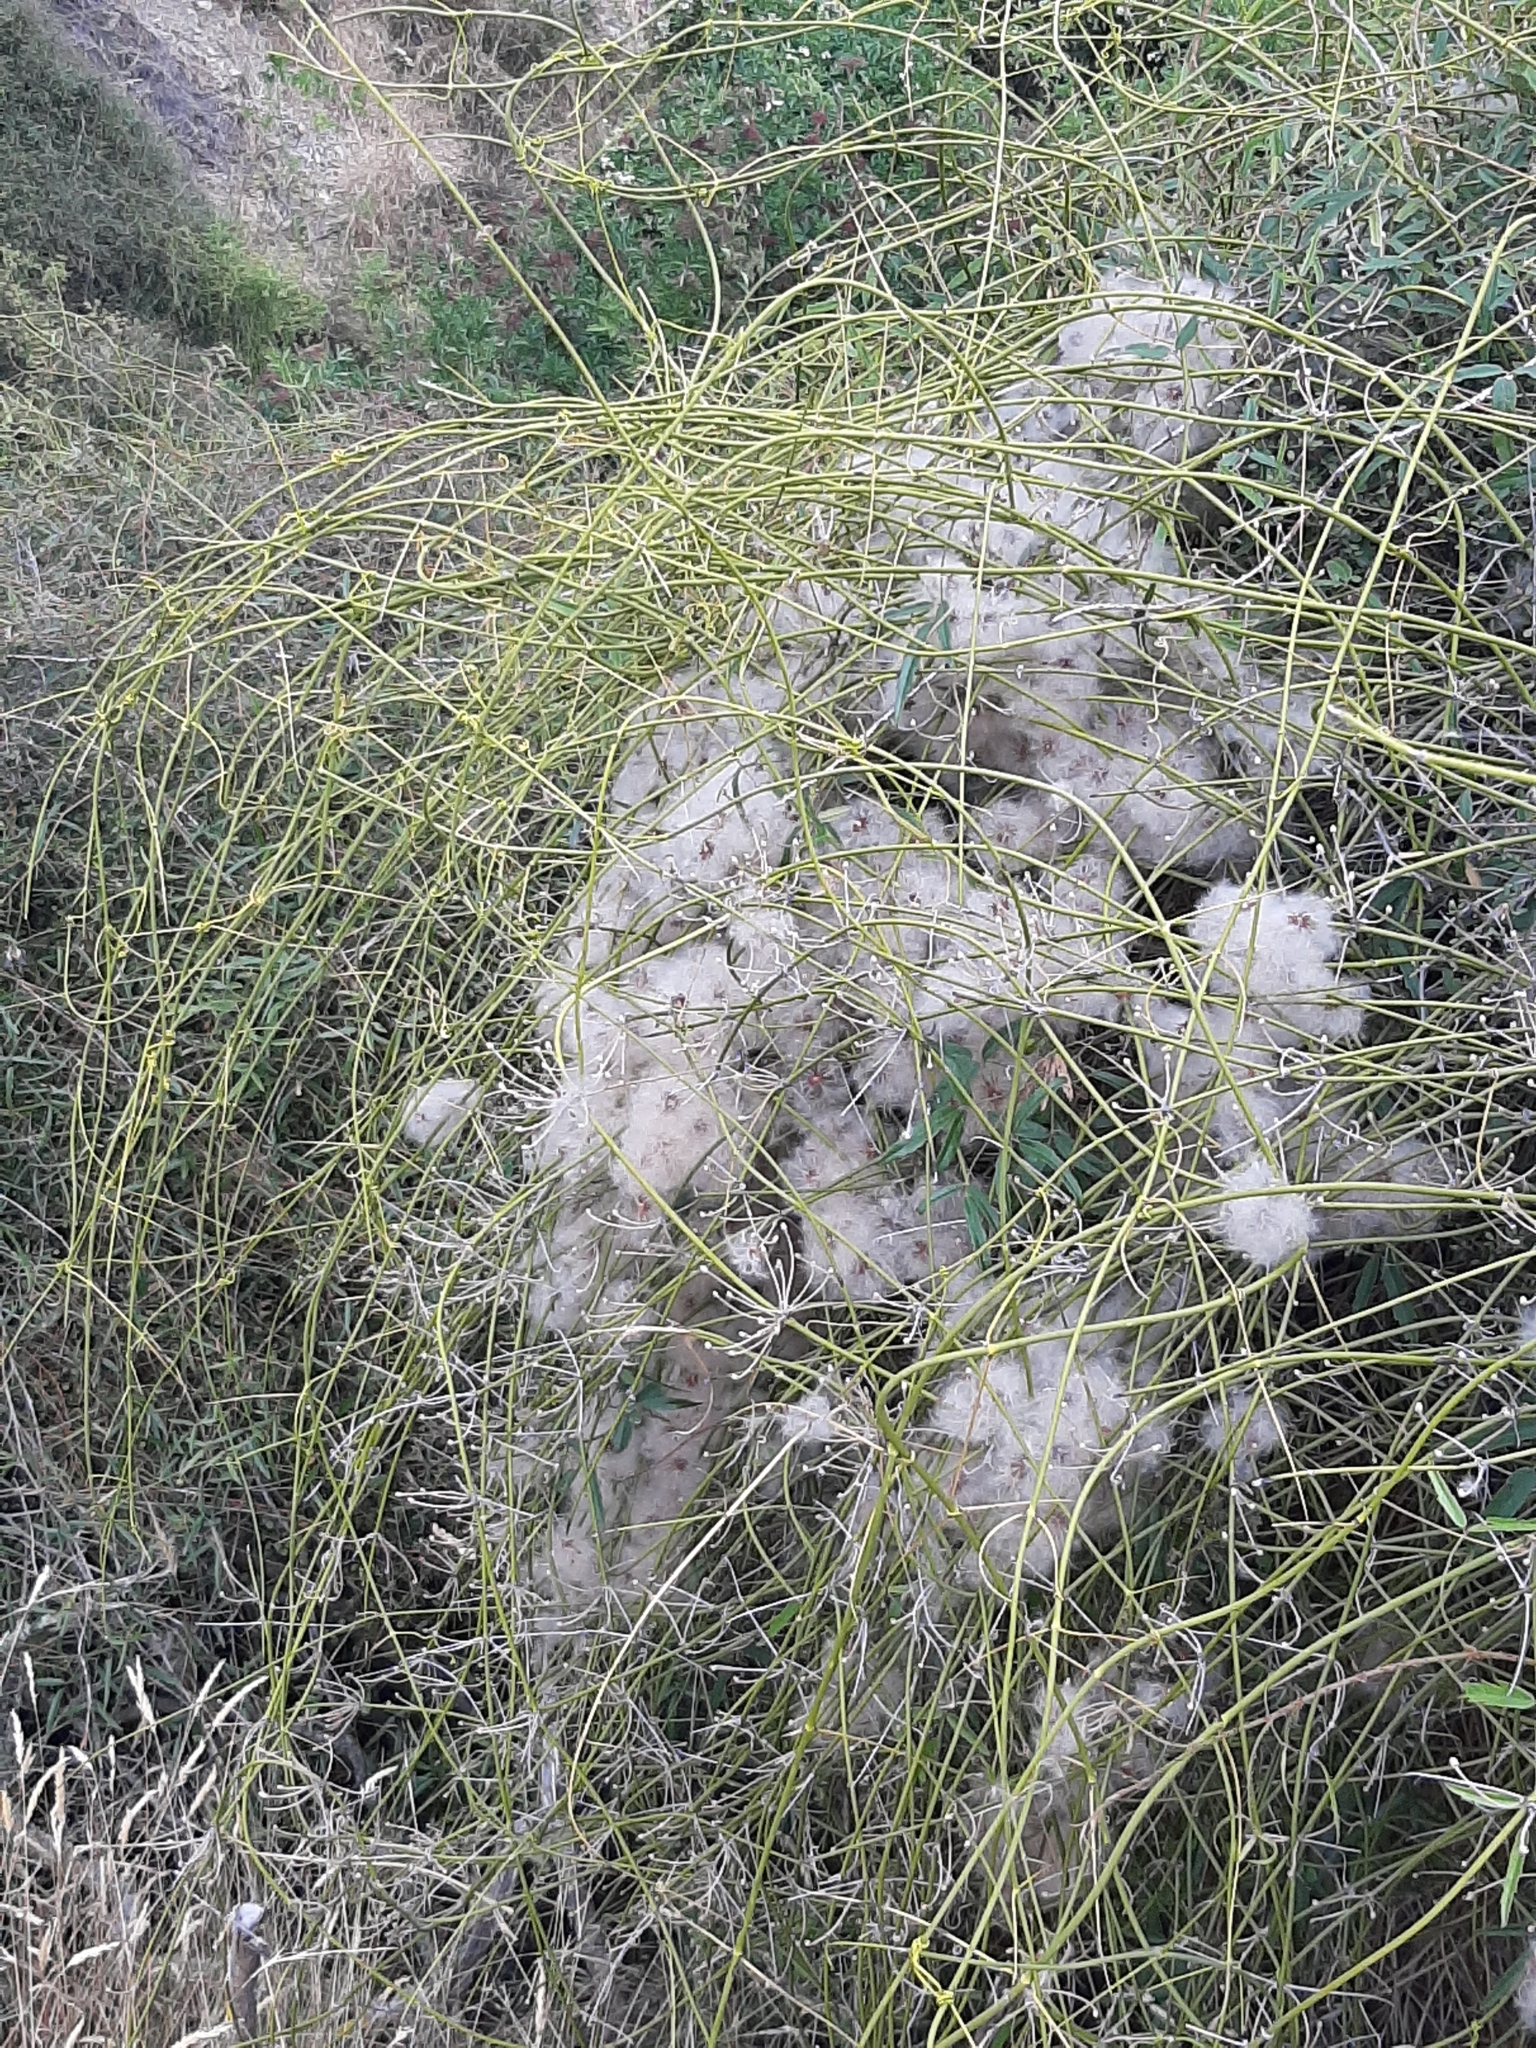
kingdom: Plantae
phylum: Tracheophyta
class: Magnoliopsida
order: Ranunculales
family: Ranunculaceae
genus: Clematis
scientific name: Clematis afoliata
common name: Rush-stem clematis
